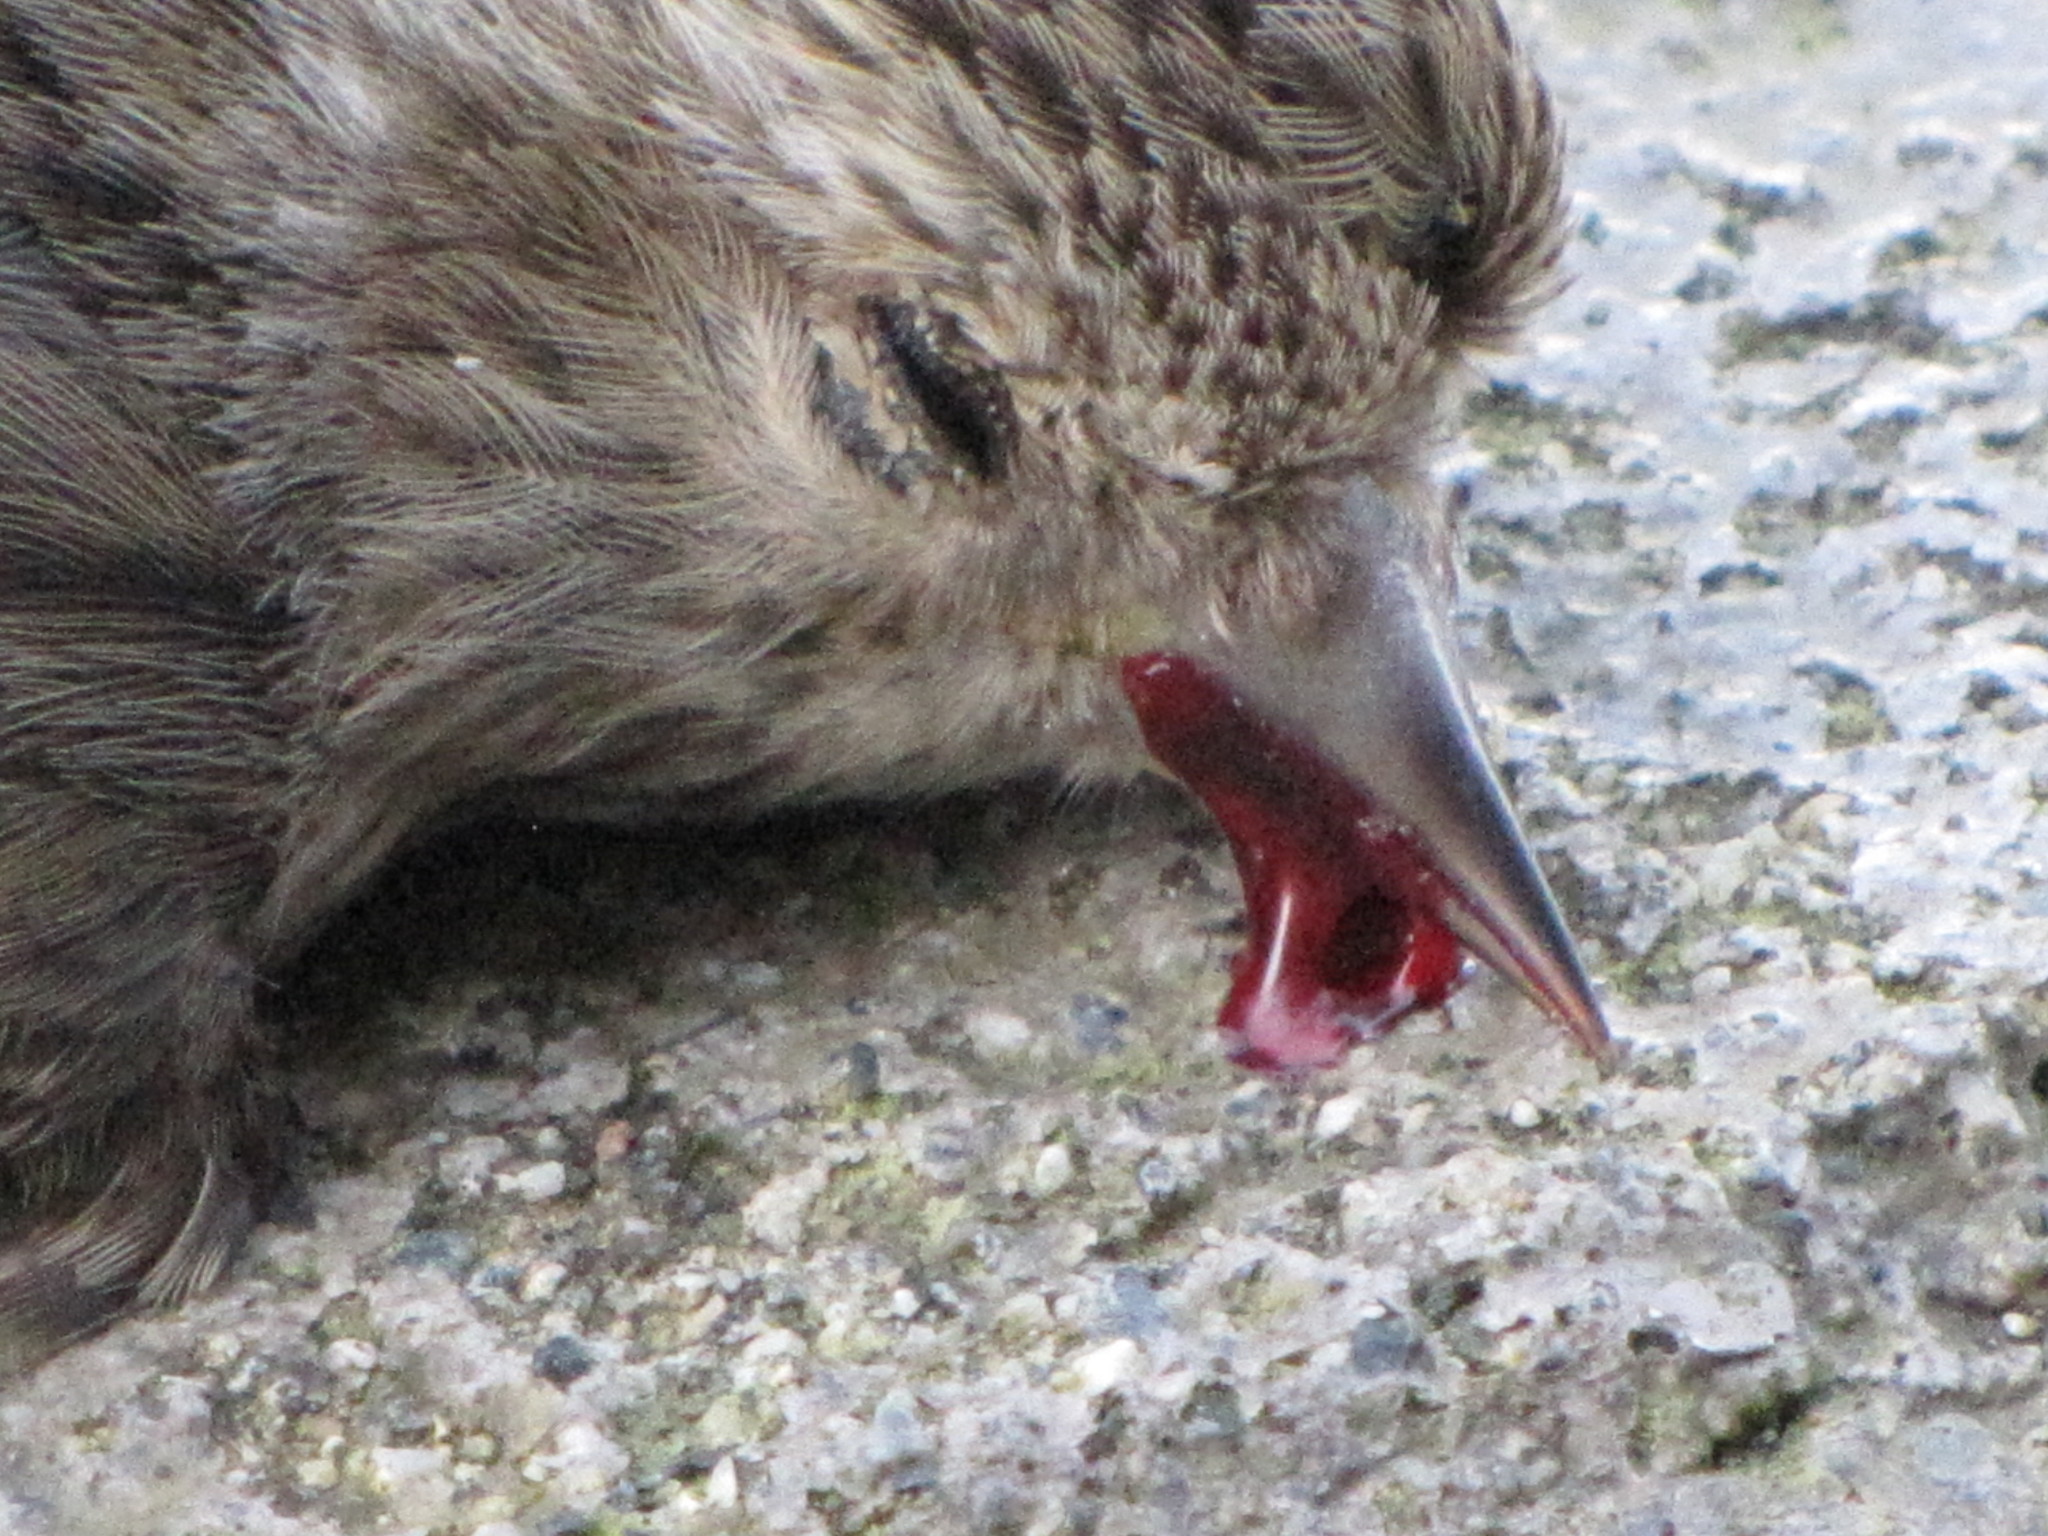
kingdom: Animalia
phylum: Chordata
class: Aves
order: Passeriformes
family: Fringillidae
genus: Spinus
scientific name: Spinus pinus
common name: Pine siskin
